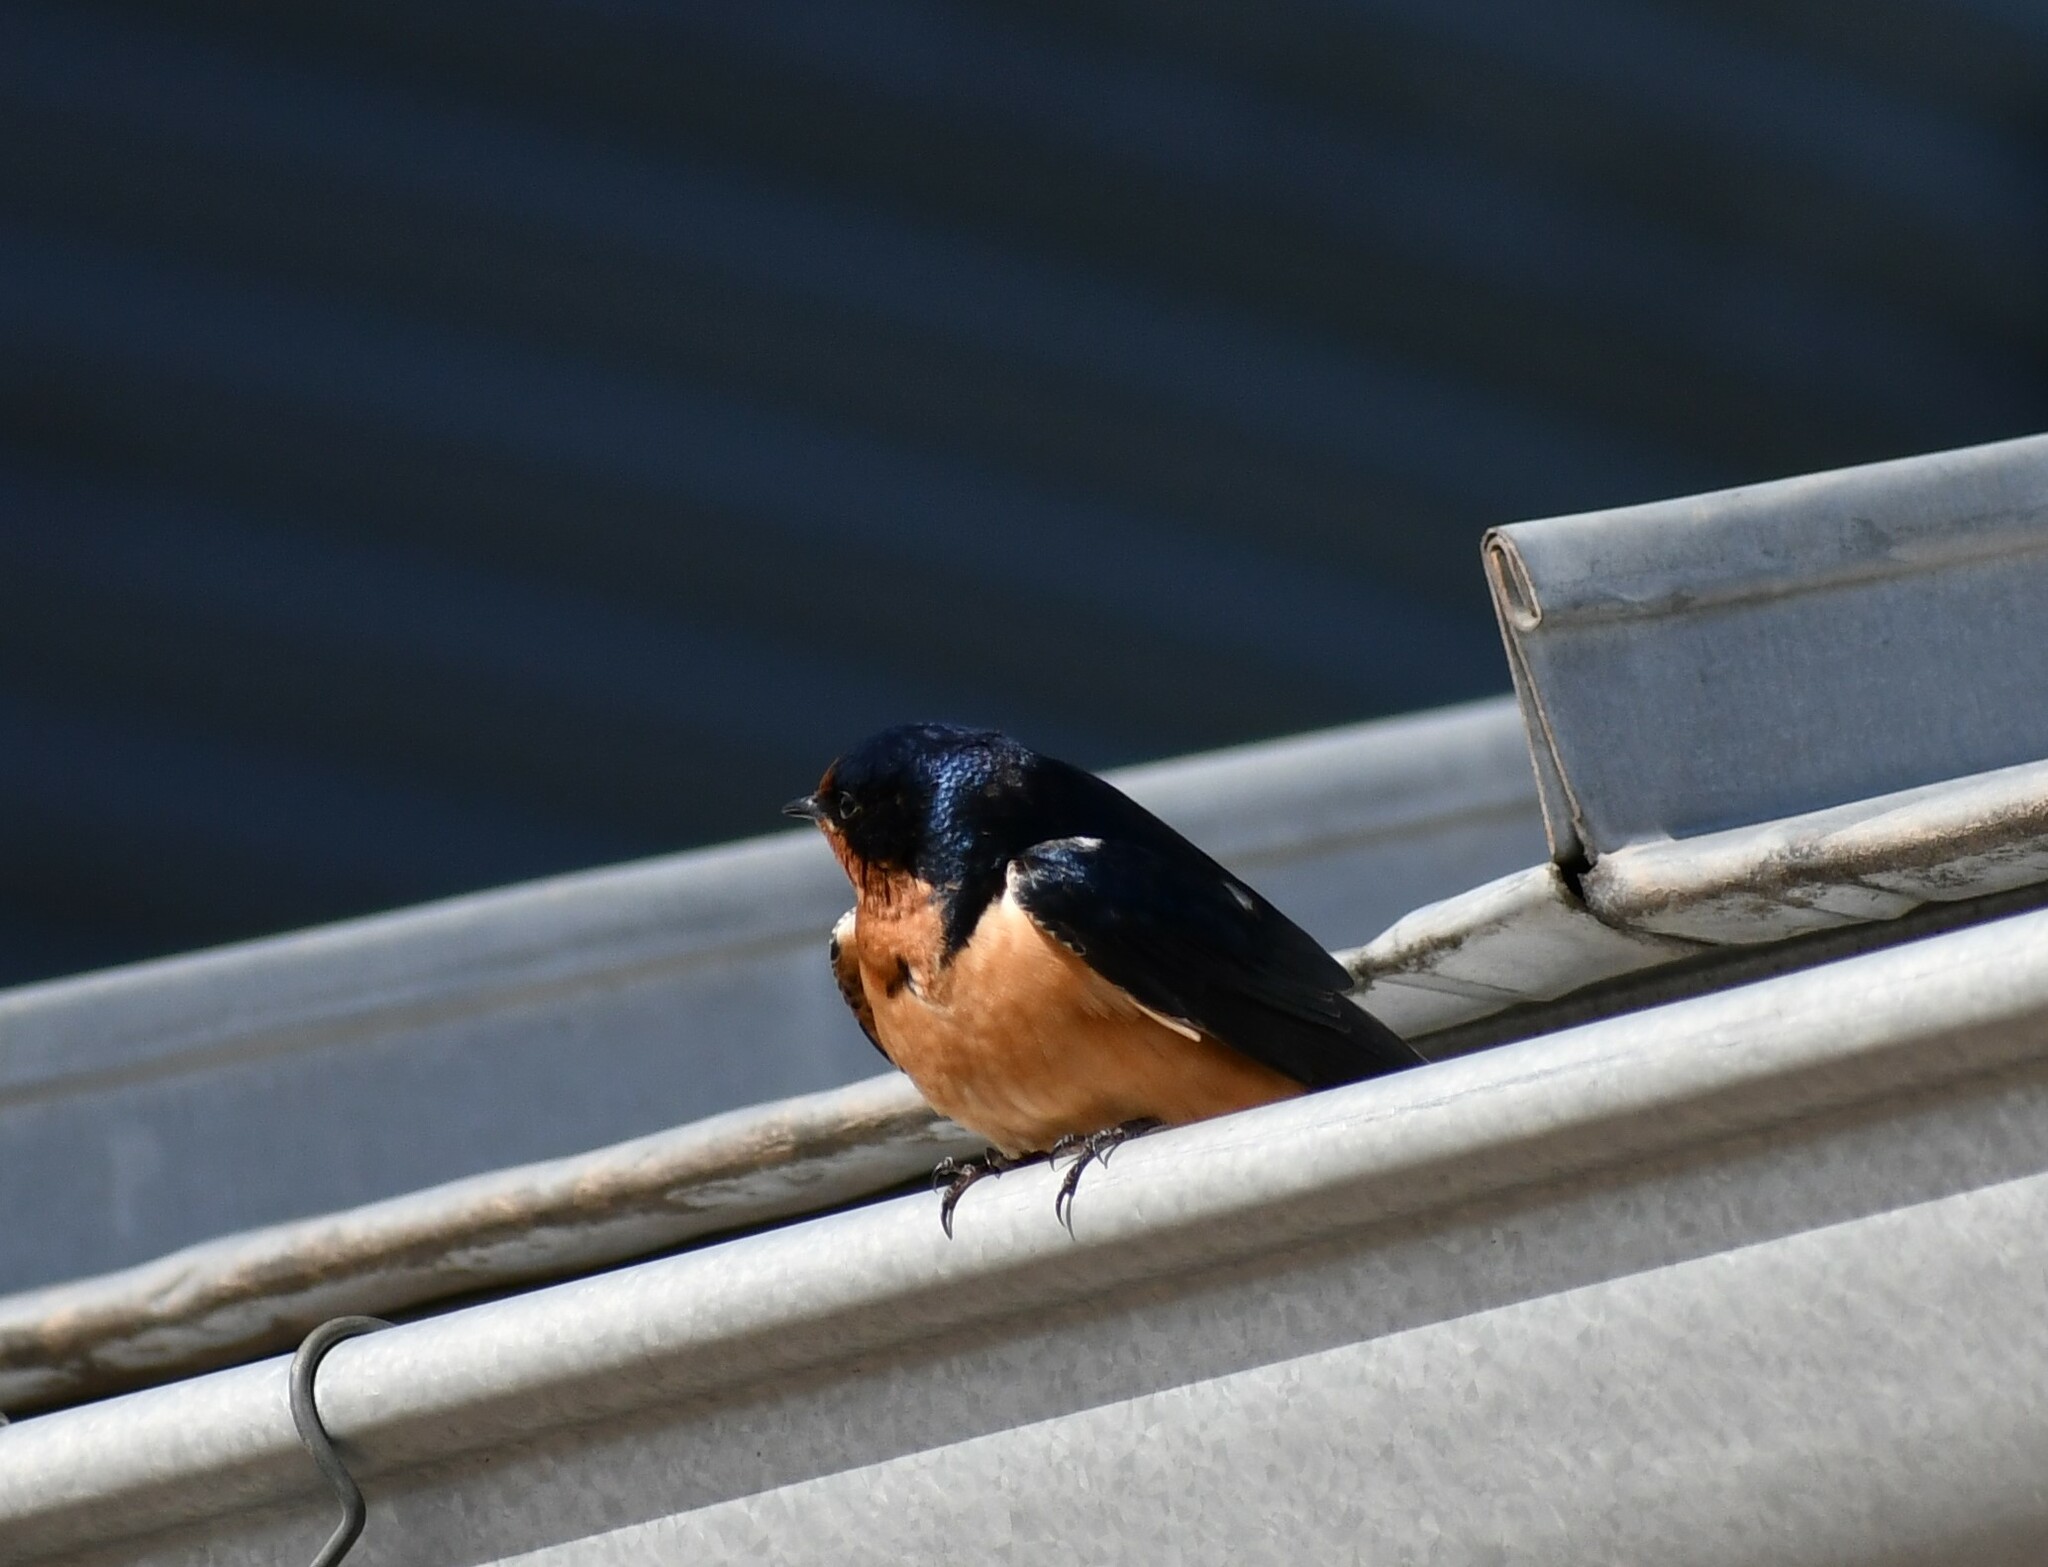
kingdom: Animalia
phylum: Chordata
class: Aves
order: Passeriformes
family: Hirundinidae
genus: Hirundo
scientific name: Hirundo rustica
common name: Barn swallow
